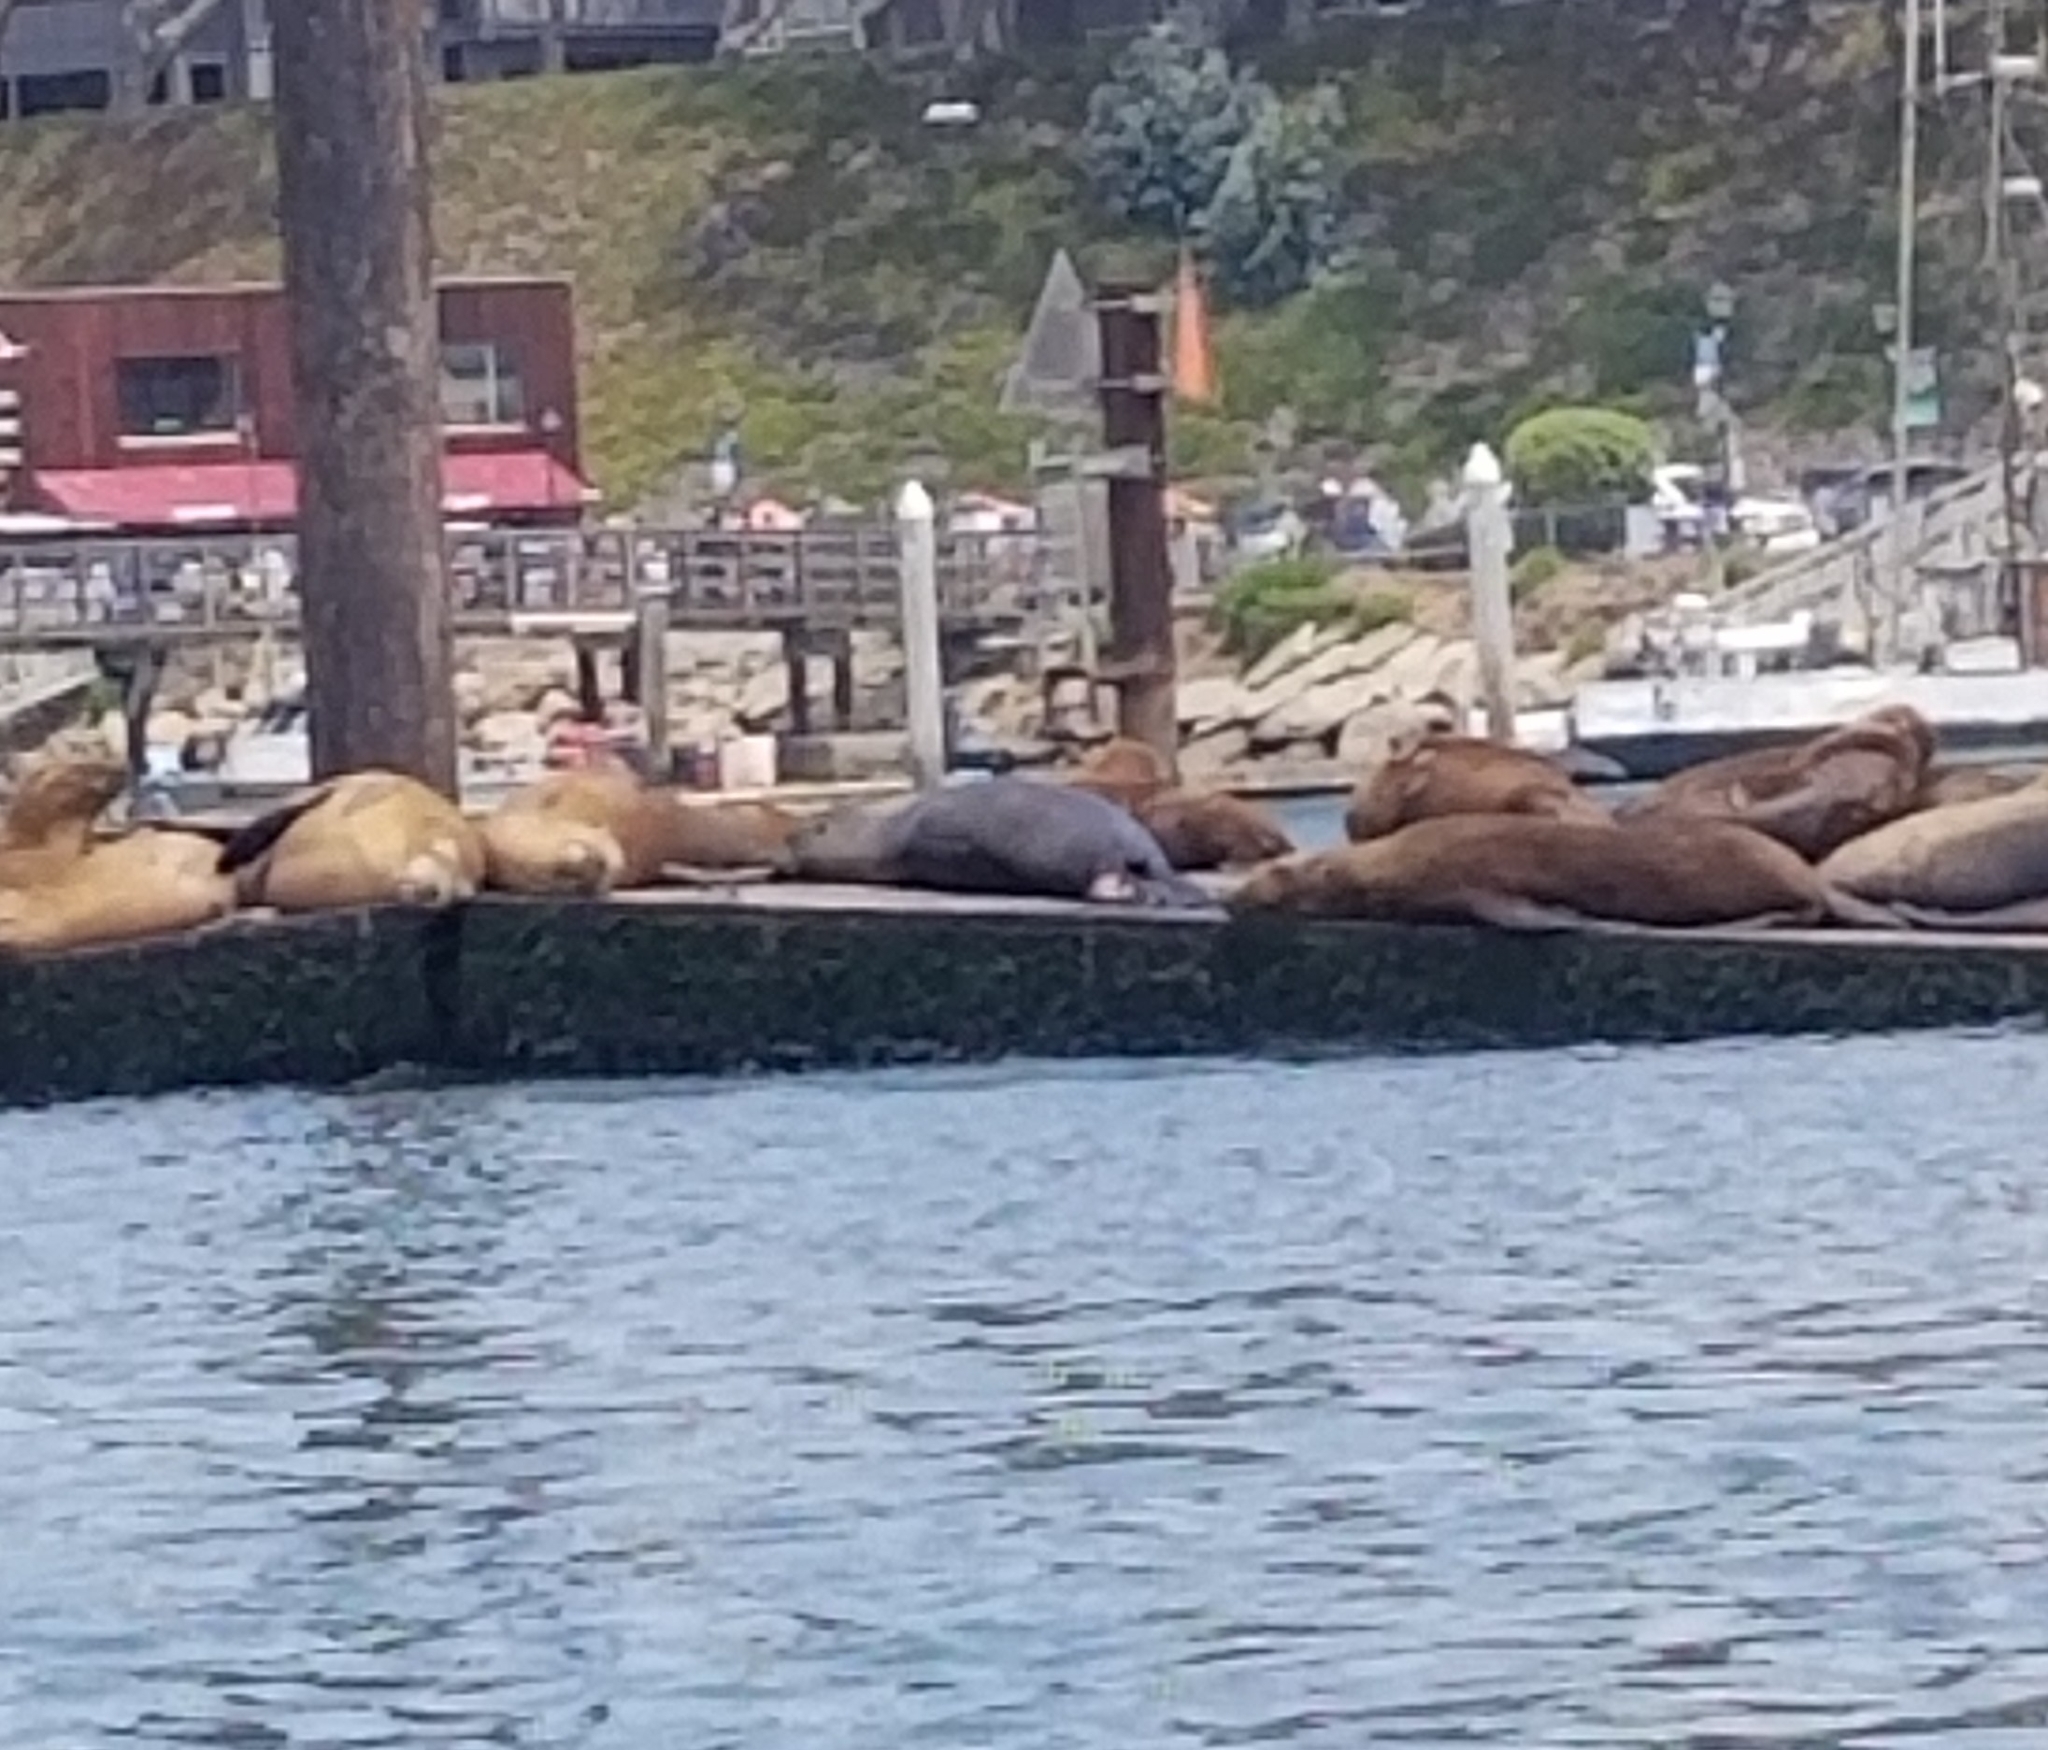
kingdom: Animalia
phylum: Chordata
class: Mammalia
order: Carnivora
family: Otariidae
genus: Zalophus
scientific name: Zalophus californianus
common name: California sea lion
